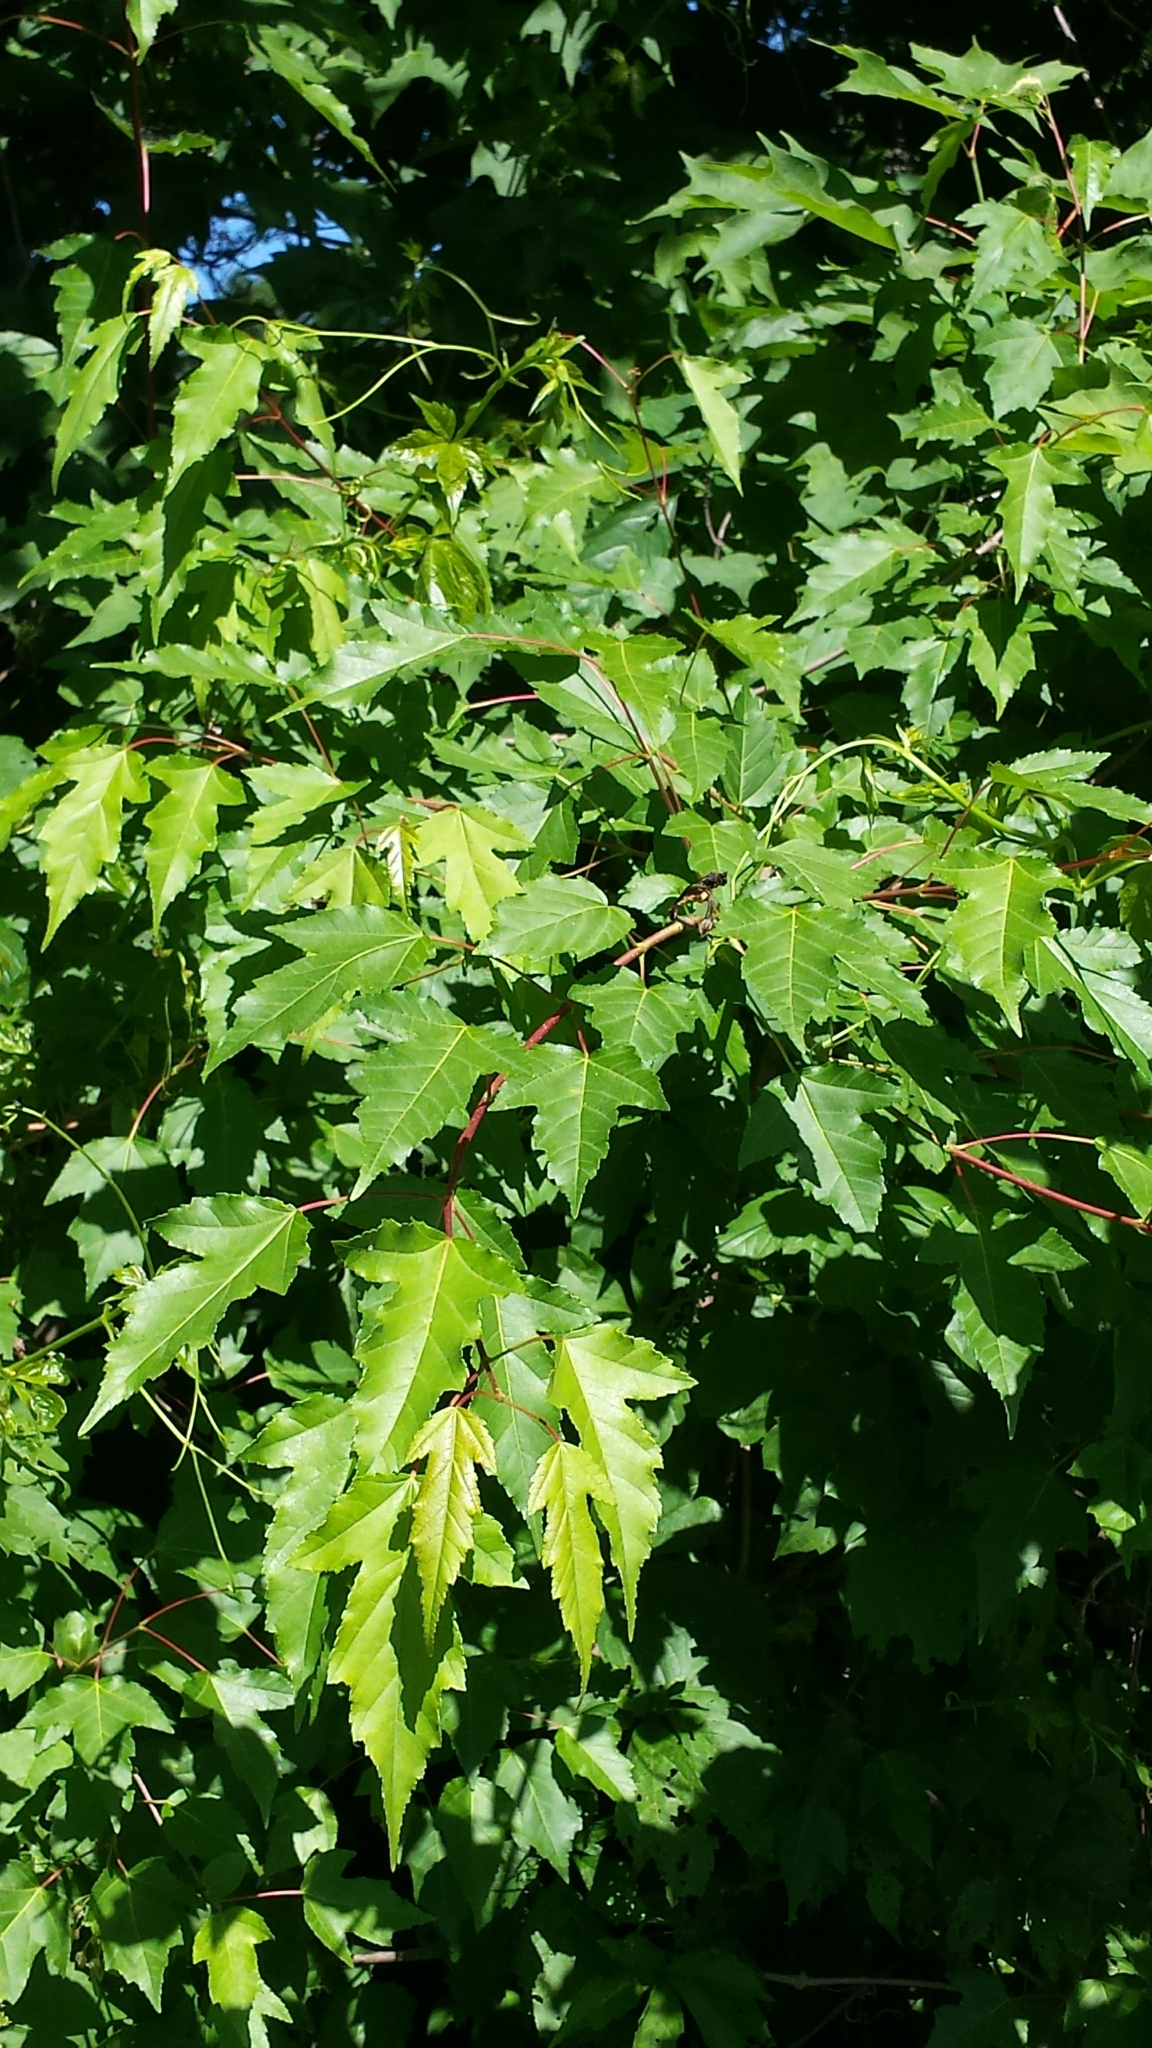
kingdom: Plantae
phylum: Tracheophyta
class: Magnoliopsida
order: Sapindales
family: Sapindaceae
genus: Acer
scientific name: Acer tataricum
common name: Tartar maple
